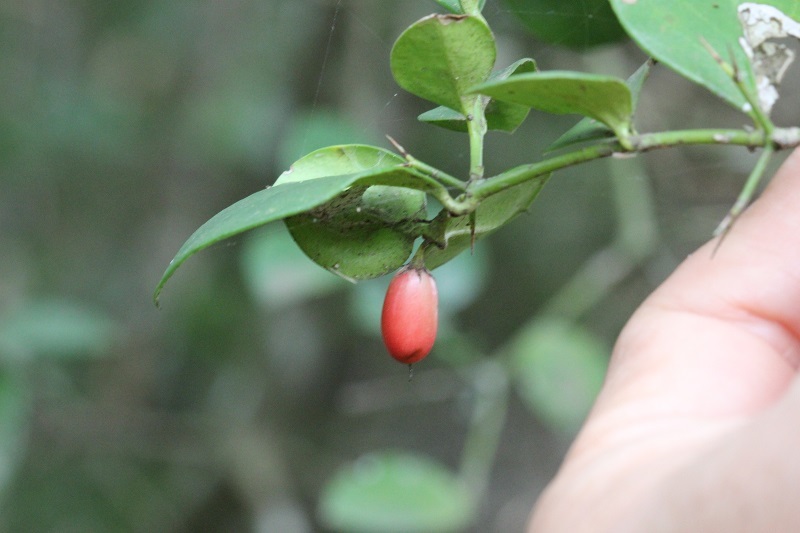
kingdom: Plantae
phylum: Tracheophyta
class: Magnoliopsida
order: Gentianales
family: Apocynaceae
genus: Carissa
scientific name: Carissa bispinosa
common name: Forest num-num
